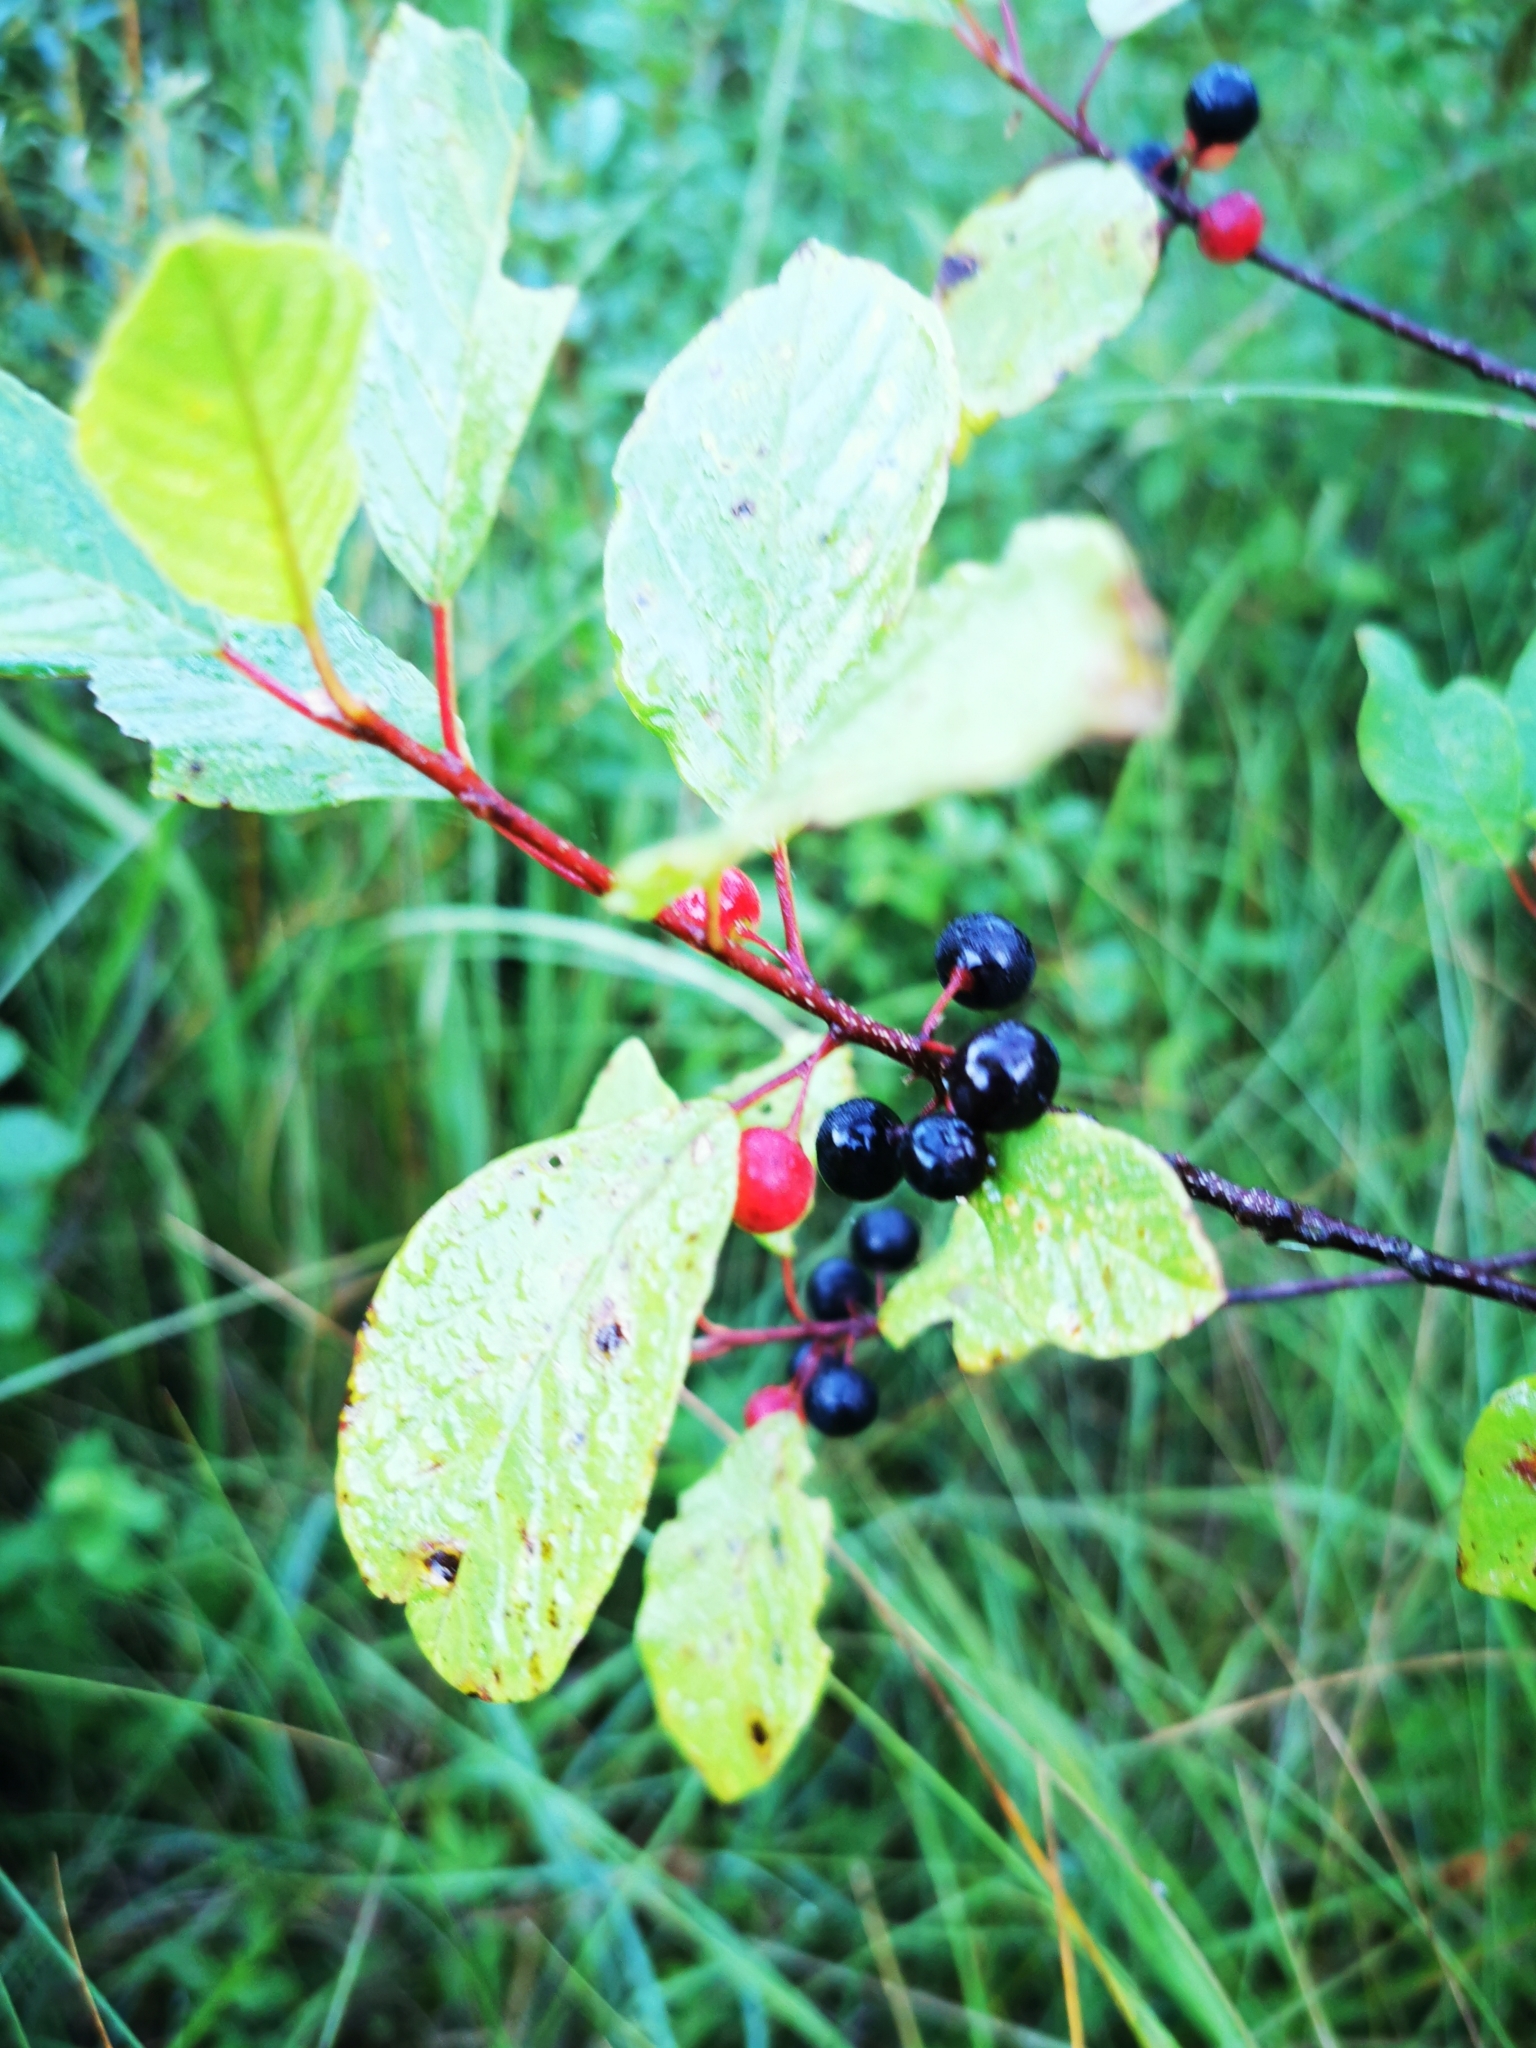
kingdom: Plantae
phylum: Tracheophyta
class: Magnoliopsida
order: Rosales
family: Rhamnaceae
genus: Frangula
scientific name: Frangula alnus
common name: Alder buckthorn
